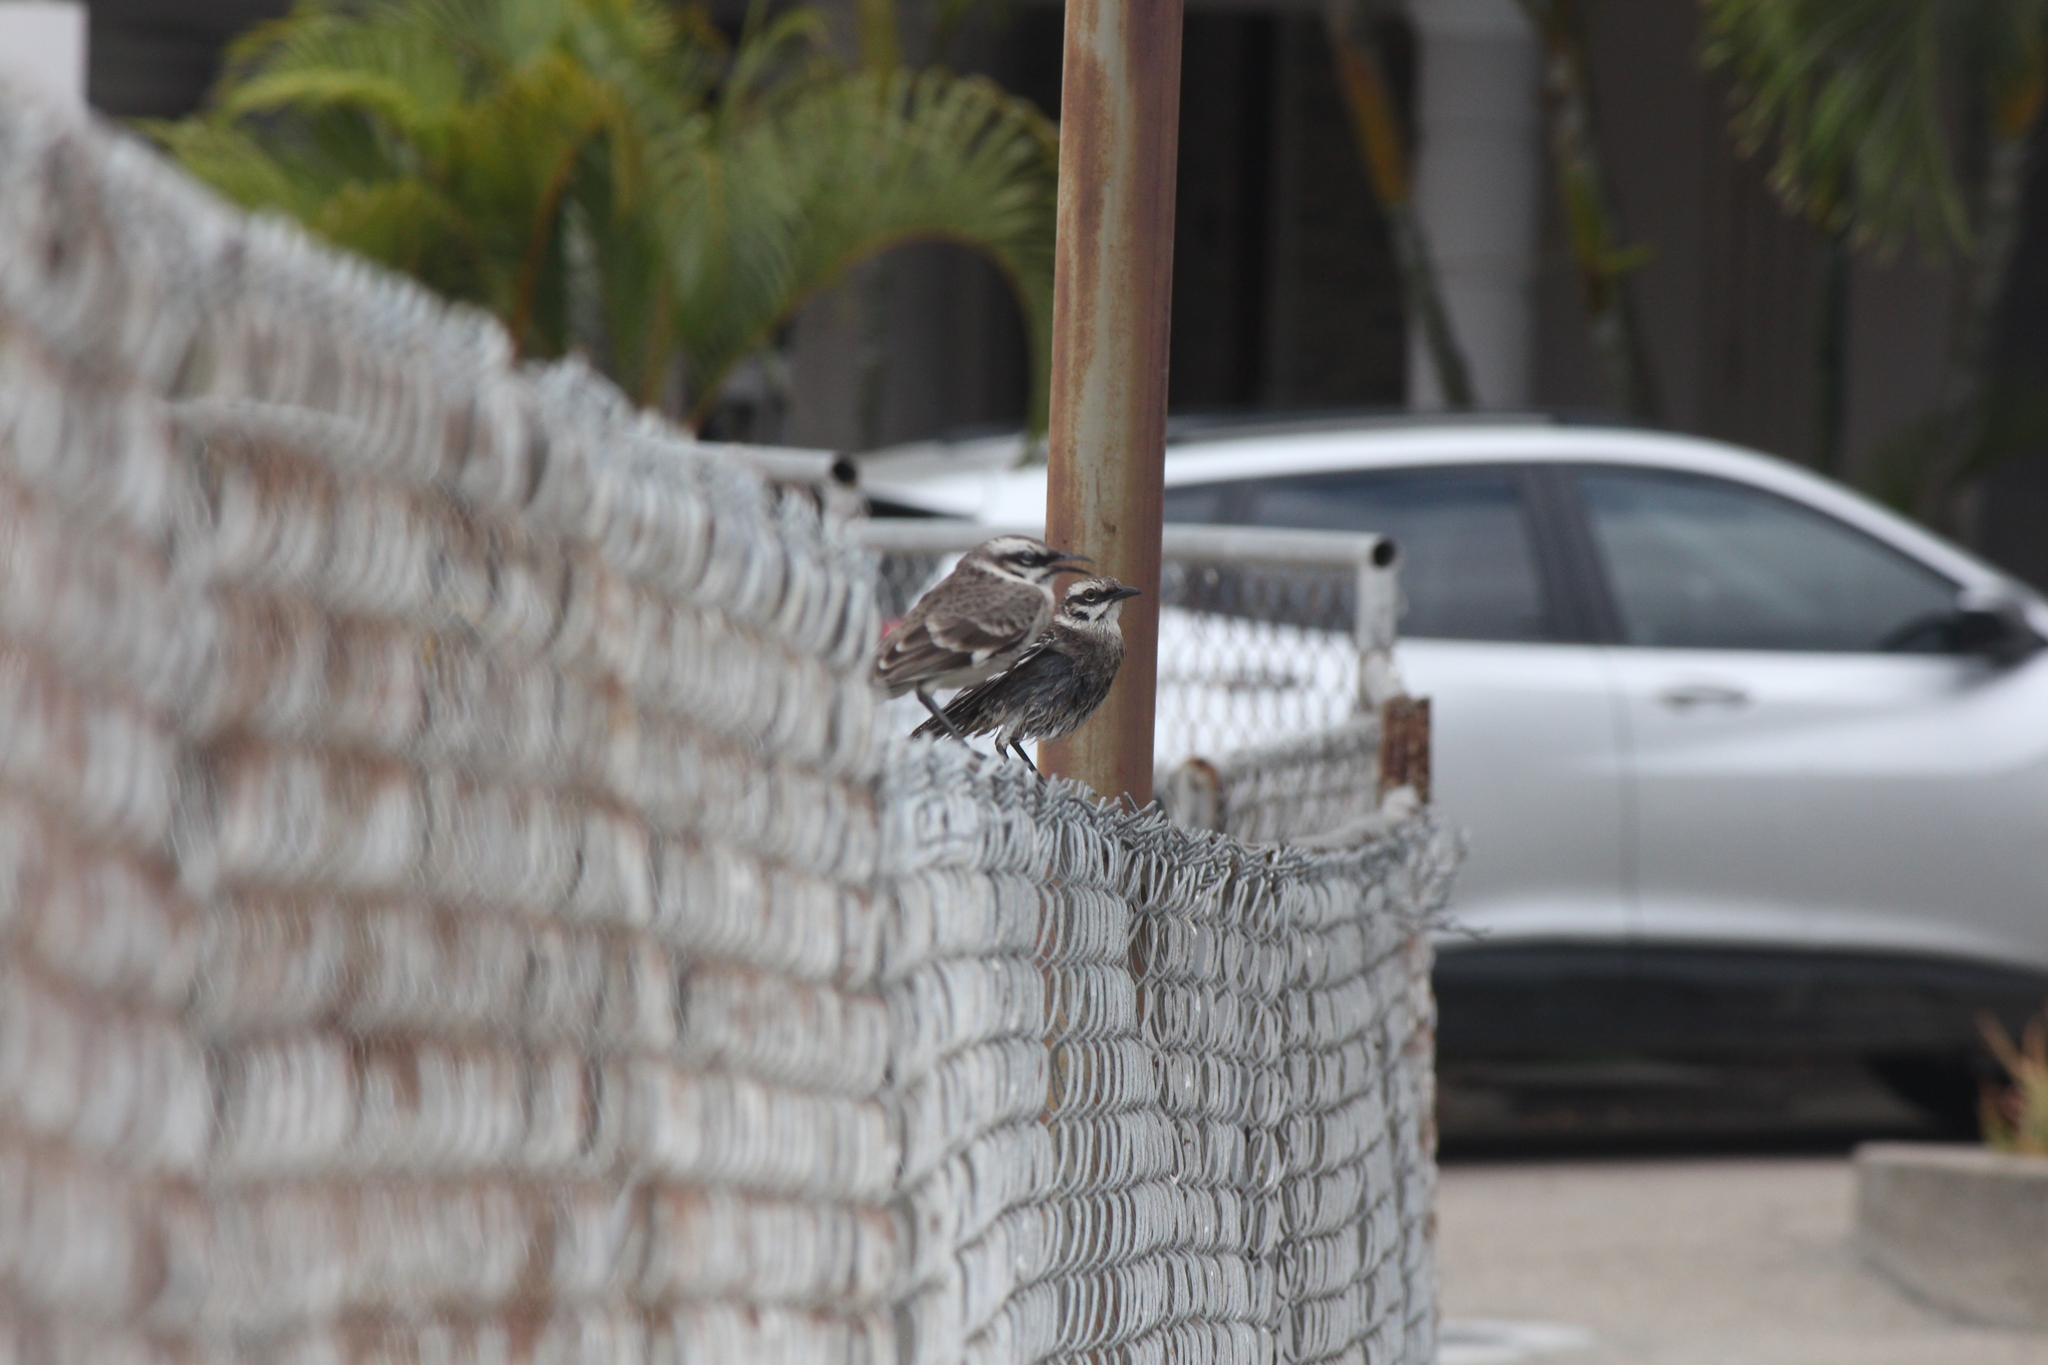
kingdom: Animalia
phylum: Chordata
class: Aves
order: Passeriformes
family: Mimidae
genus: Mimus
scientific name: Mimus longicaudatus
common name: Long-tailed mockingbird
